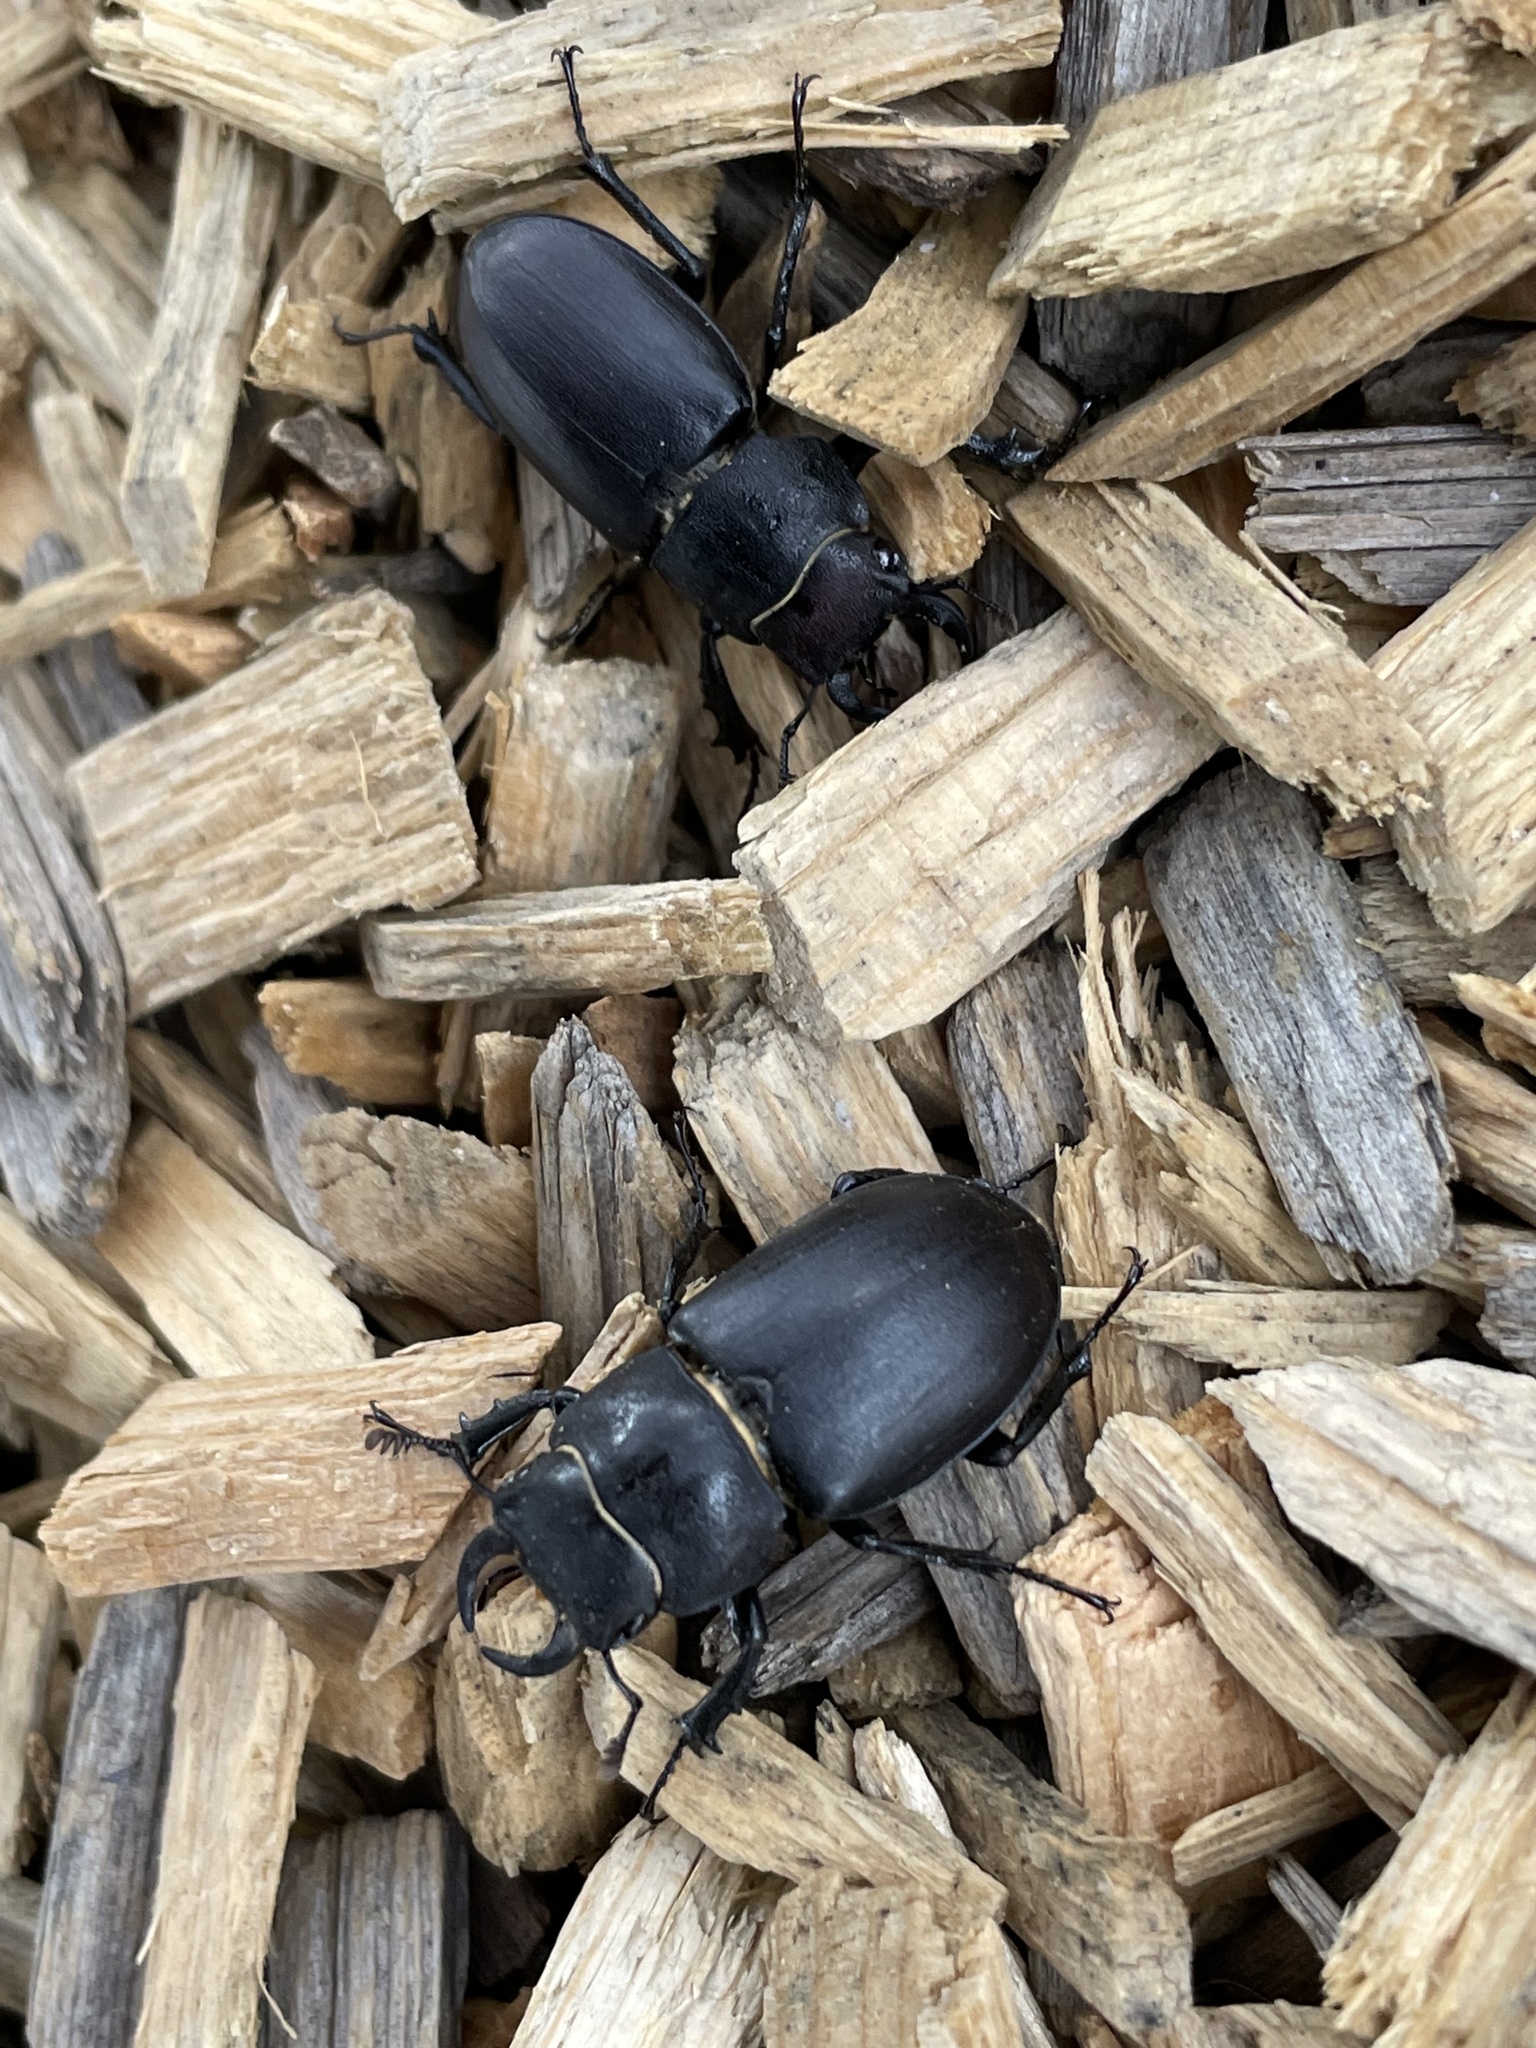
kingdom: Animalia
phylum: Arthropoda
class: Insecta
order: Coleoptera
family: Lucanidae
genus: Lucanus
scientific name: Lucanus mazama
